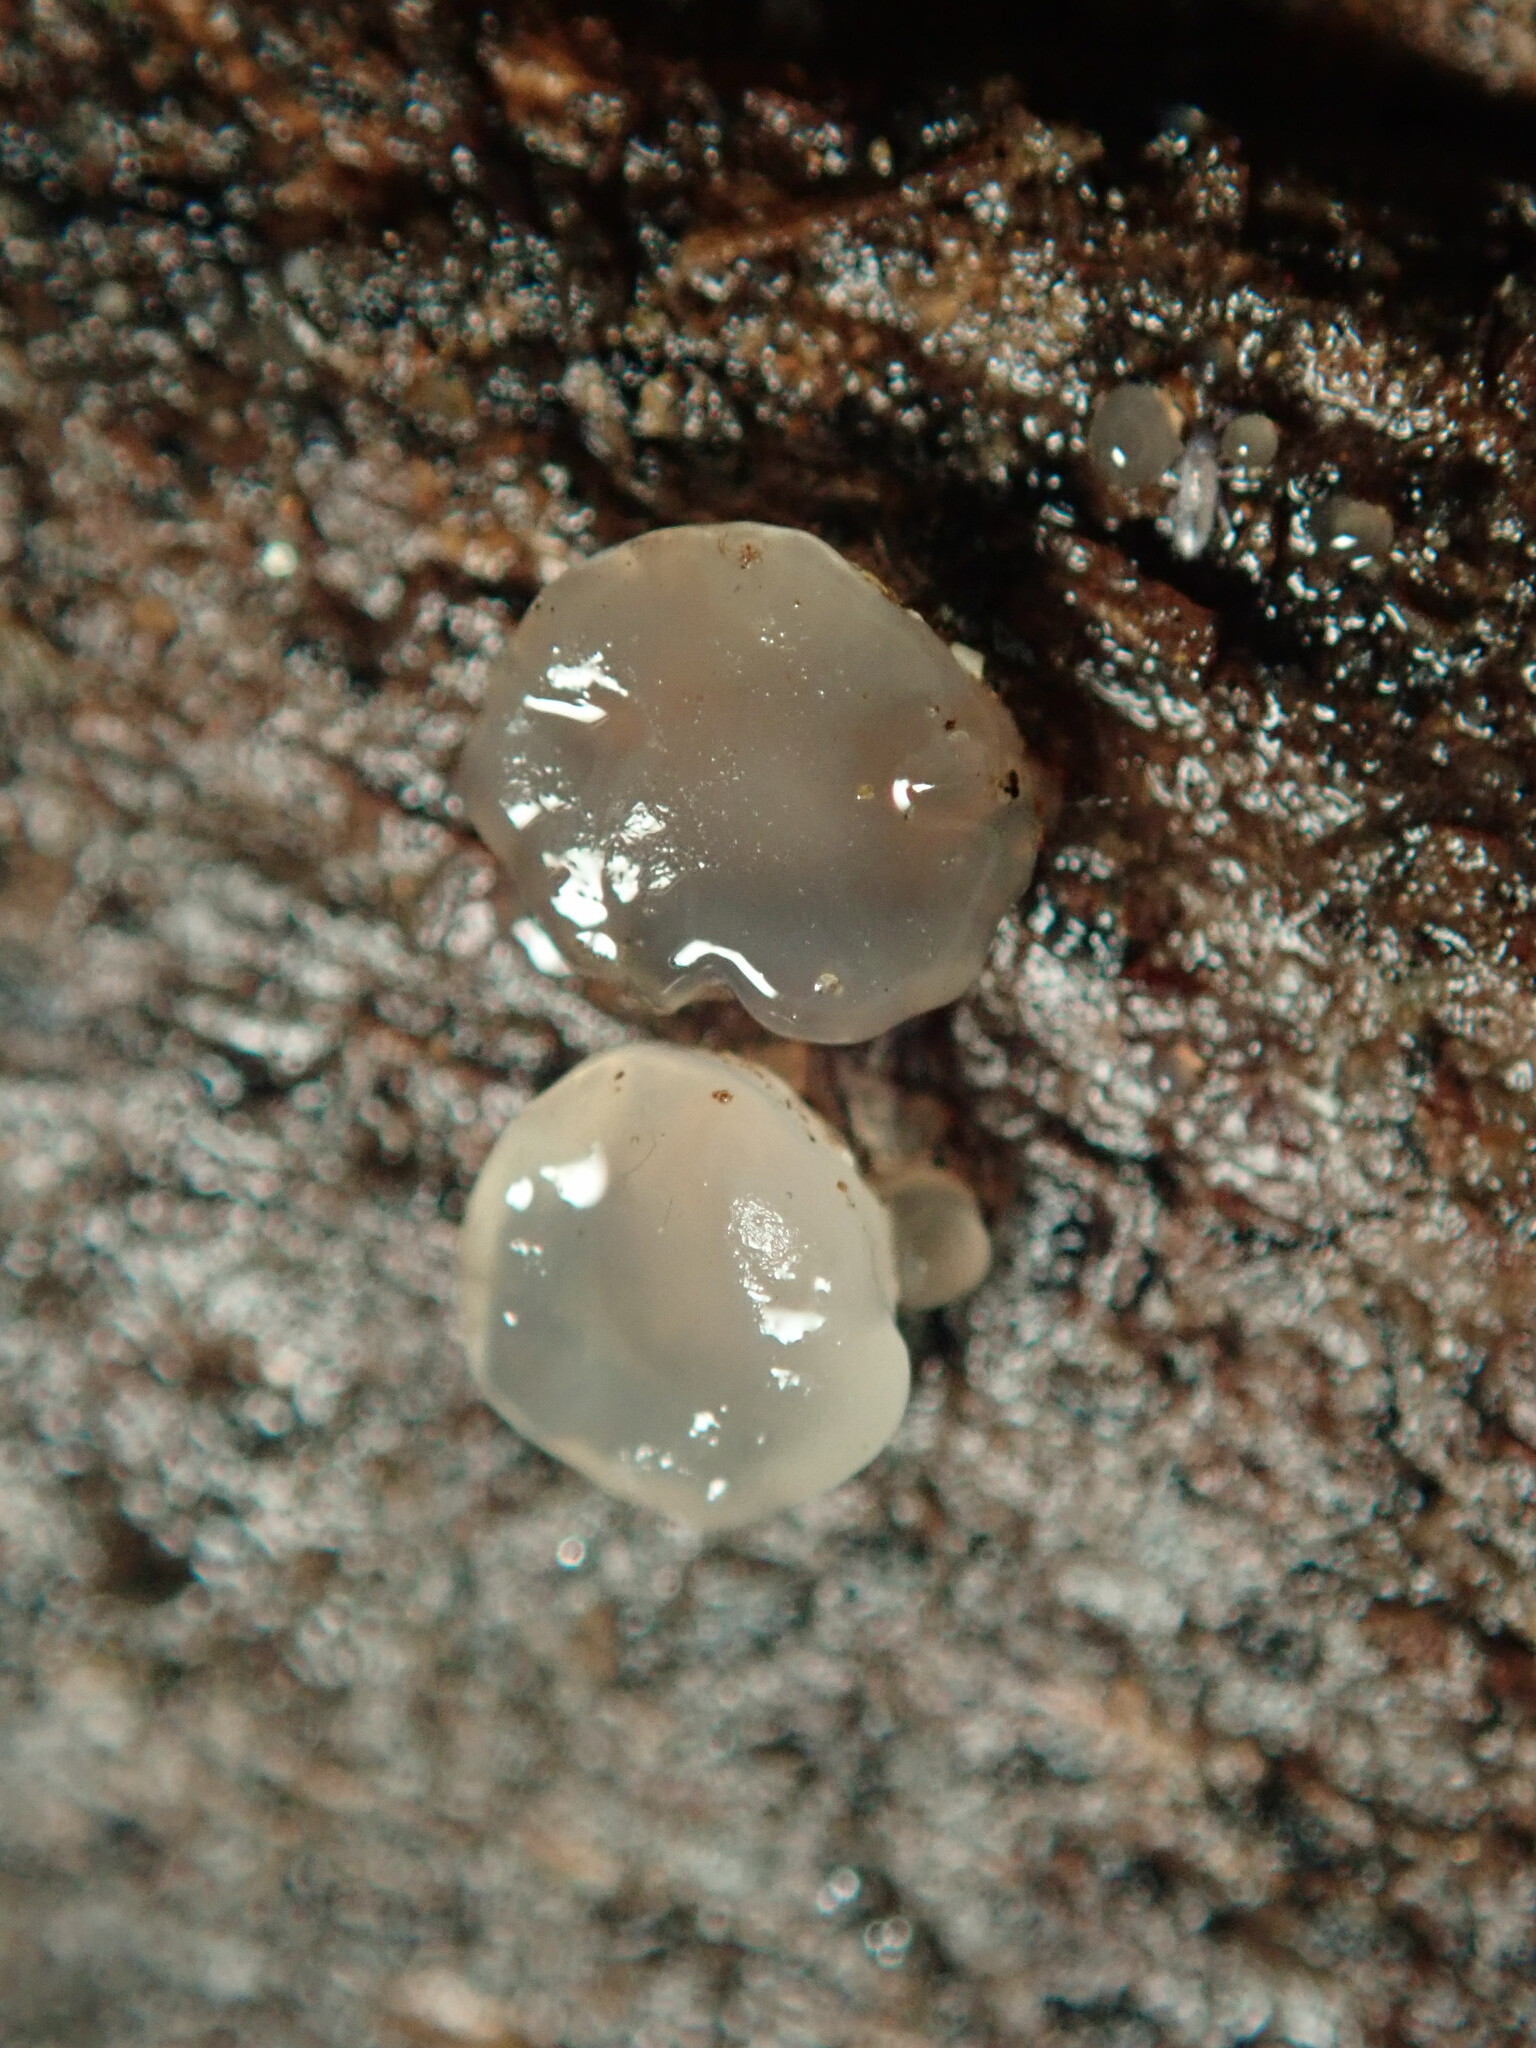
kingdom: Fungi
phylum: Basidiomycota
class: Agaricomycetes
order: Auriculariales
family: Hyaloriaceae
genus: Myxarium
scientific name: Myxarium nucleatum
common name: Crystal brain fungus
